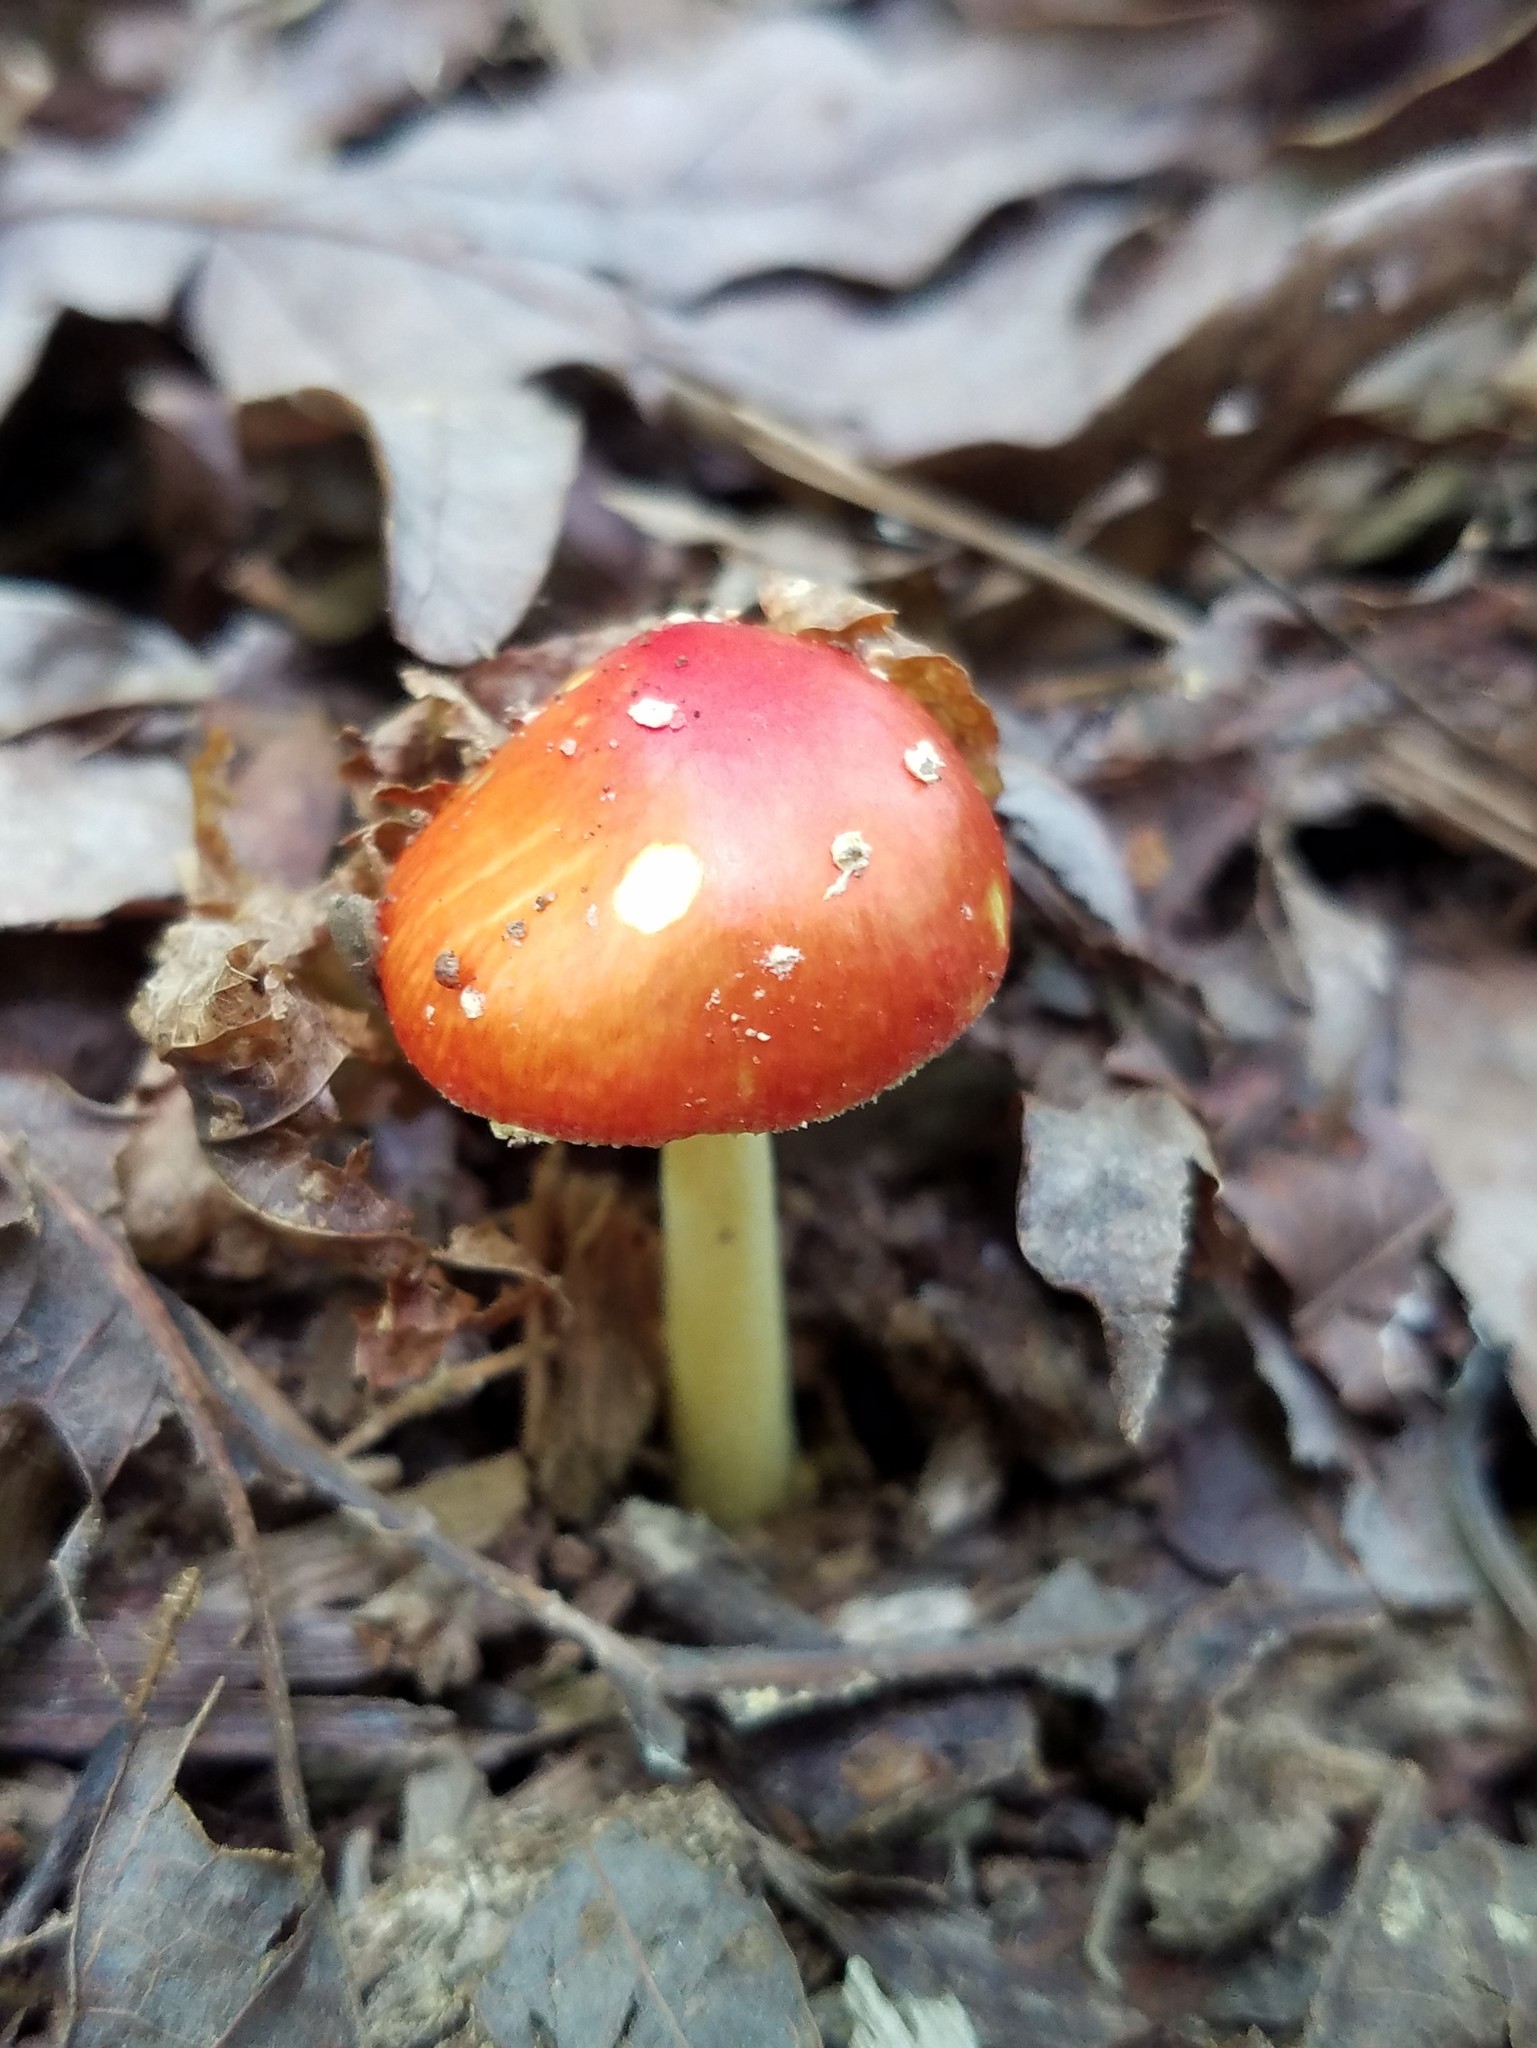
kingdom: Fungi
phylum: Basidiomycota
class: Agaricomycetes
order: Agaricales
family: Amanitaceae
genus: Amanita
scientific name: Amanita parcivolvata
